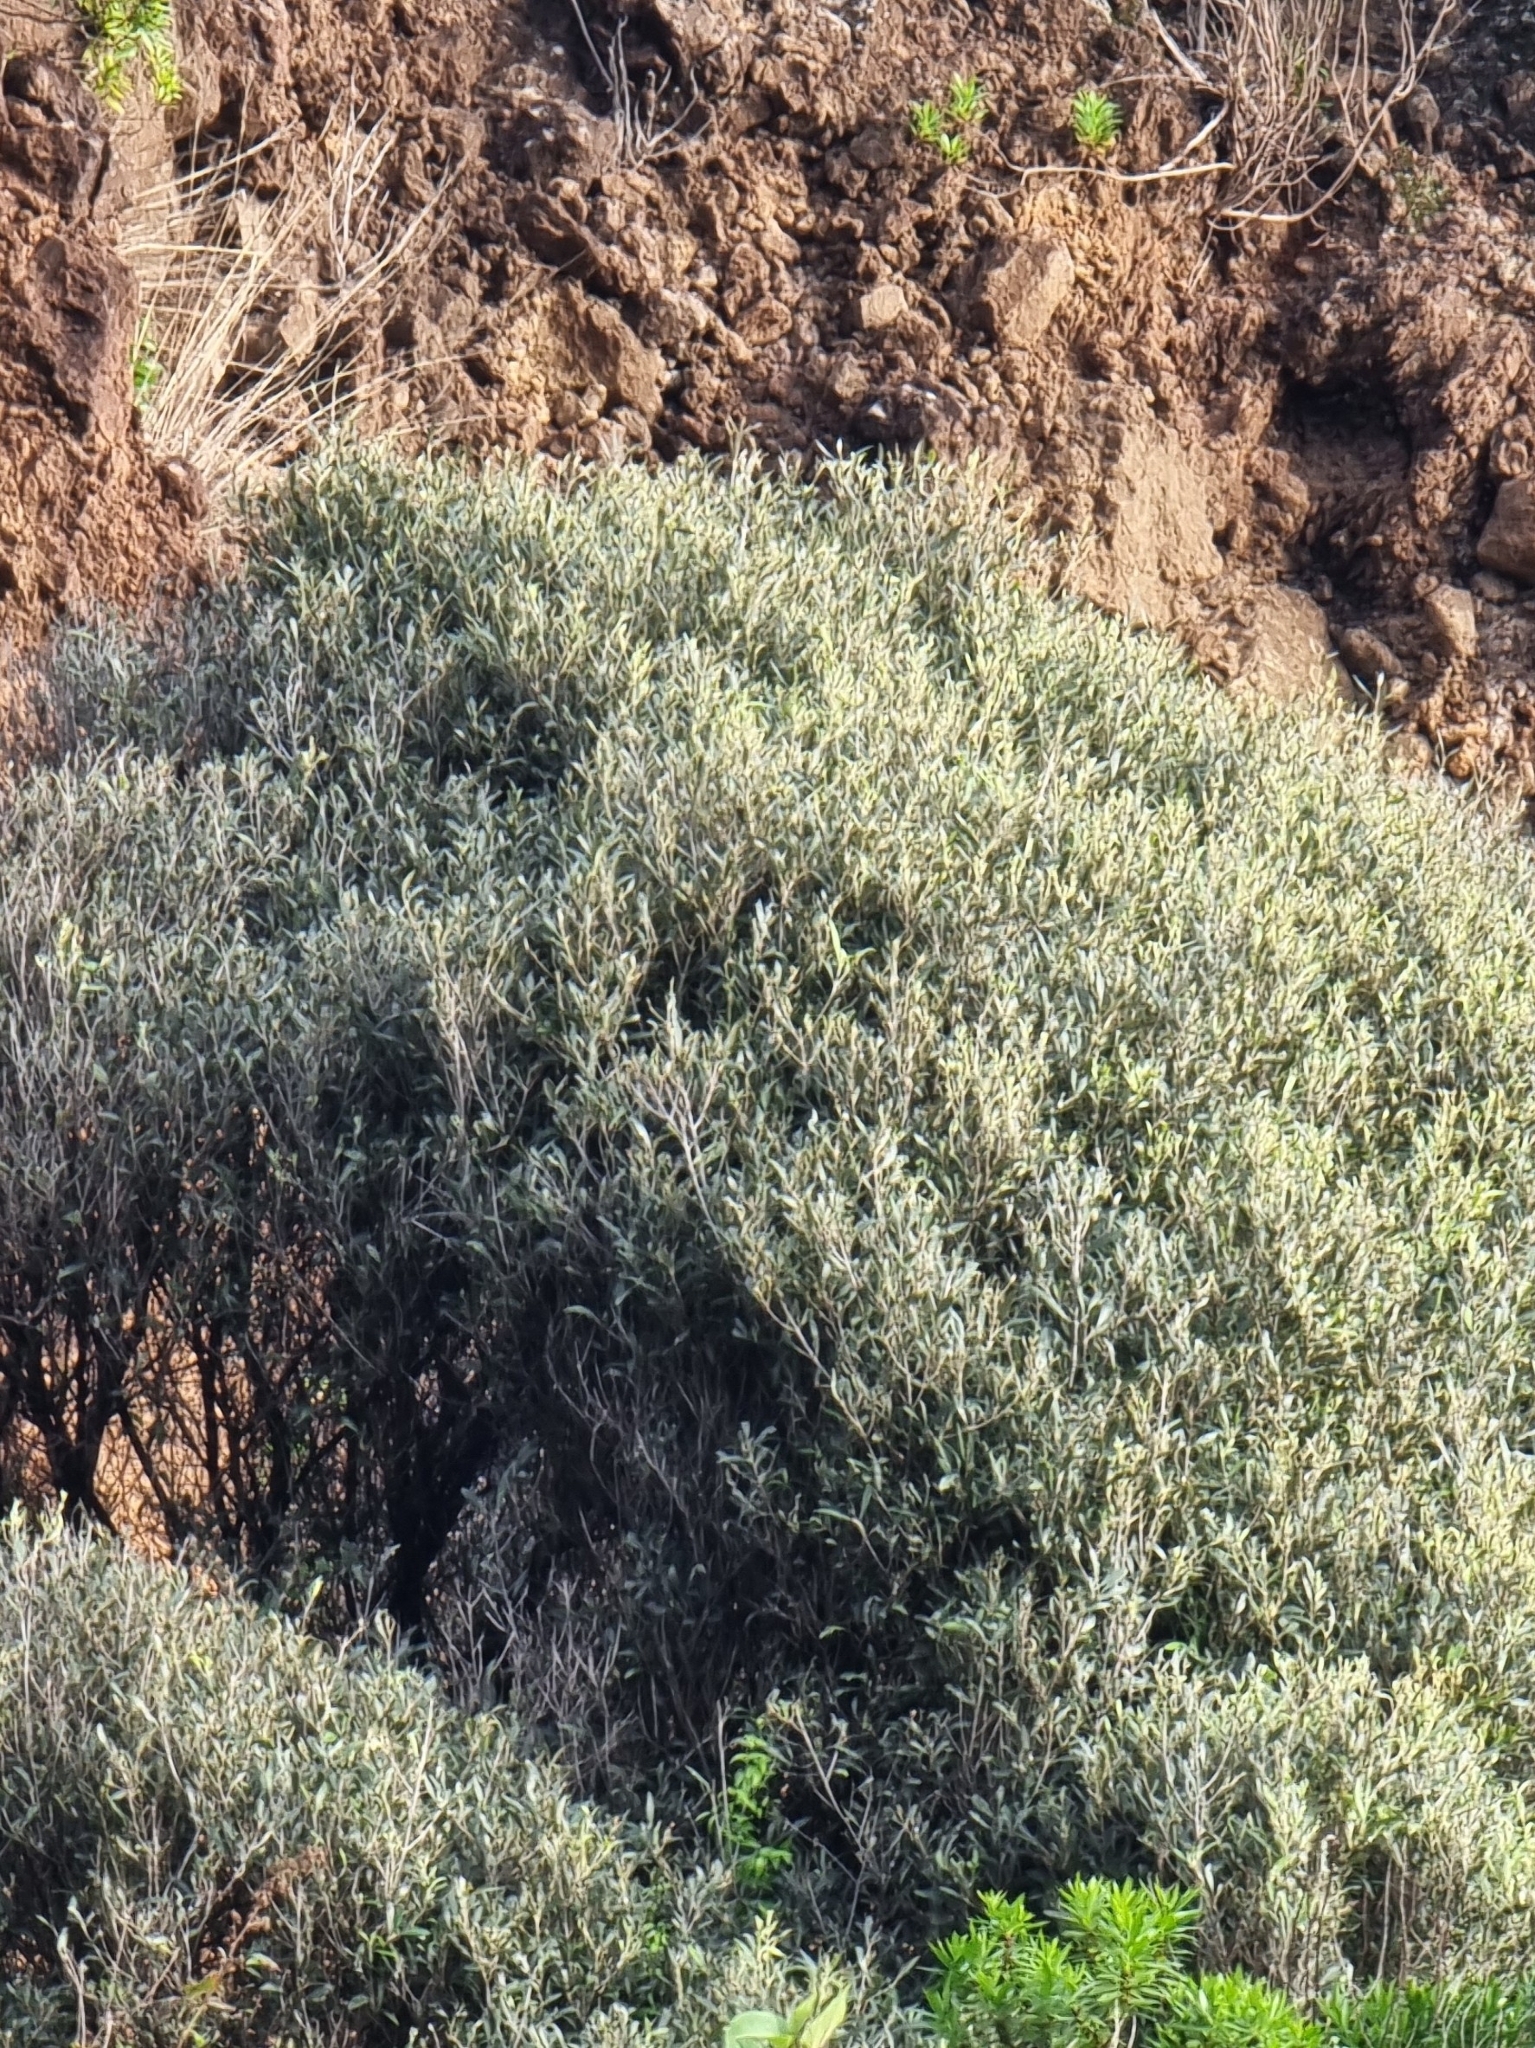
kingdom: Plantae
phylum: Tracheophyta
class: Magnoliopsida
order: Lamiales
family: Oleaceae
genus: Olea
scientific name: Olea europaea
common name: Olive
